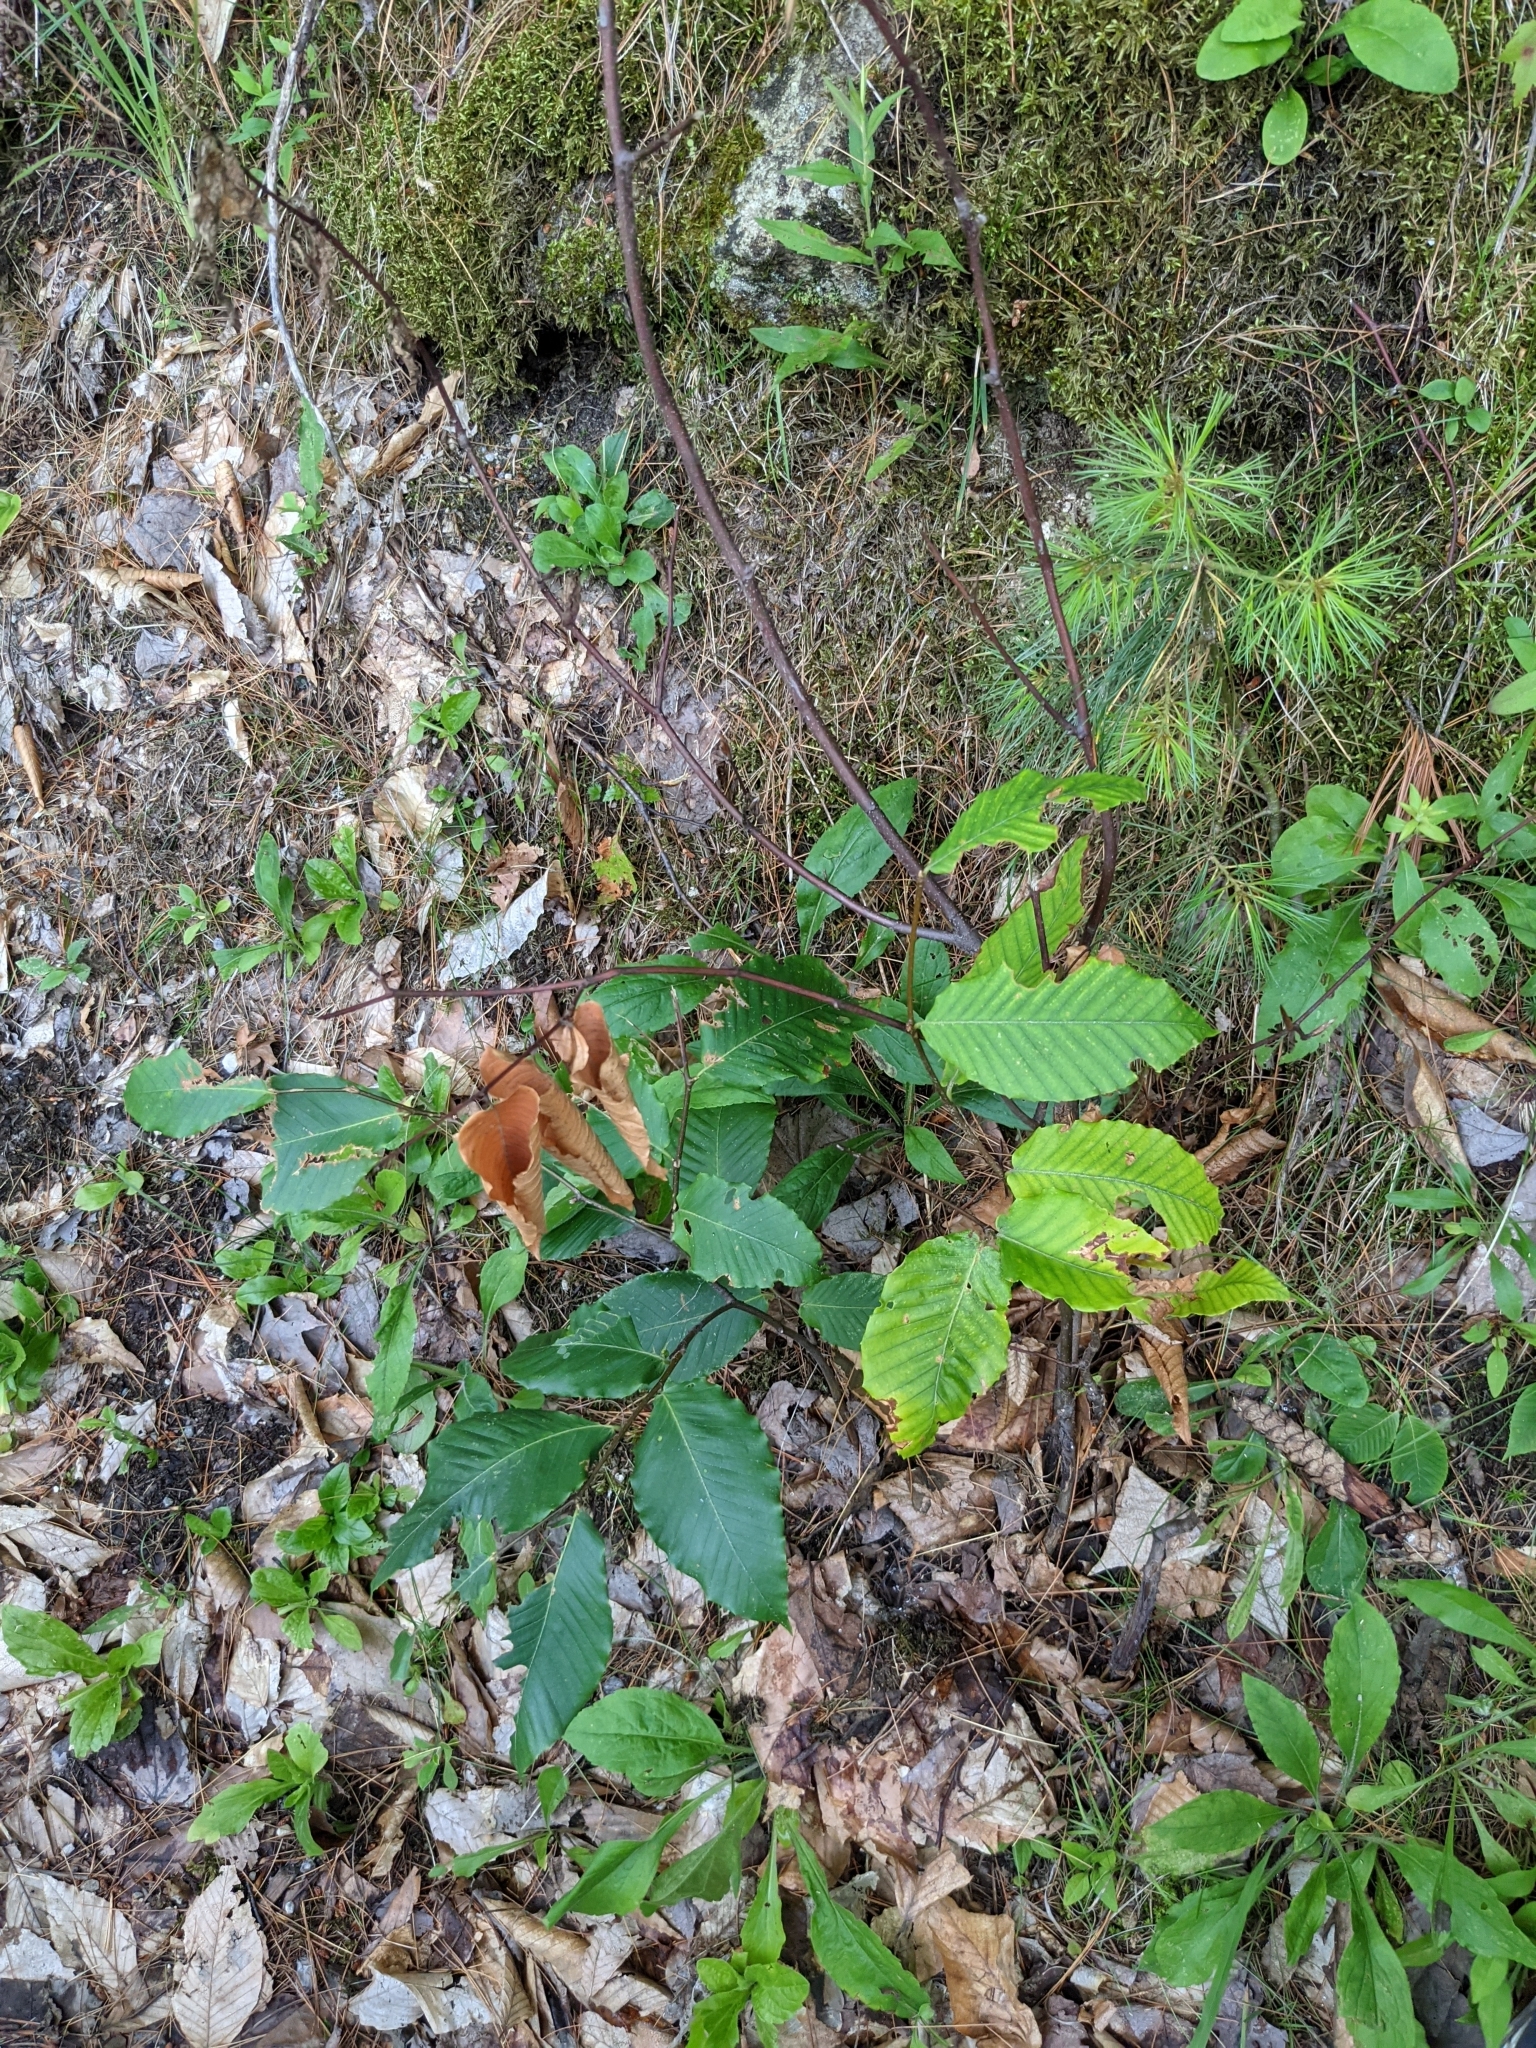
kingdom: Plantae
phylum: Tracheophyta
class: Magnoliopsida
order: Fagales
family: Fagaceae
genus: Fagus
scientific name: Fagus grandifolia
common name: American beech
